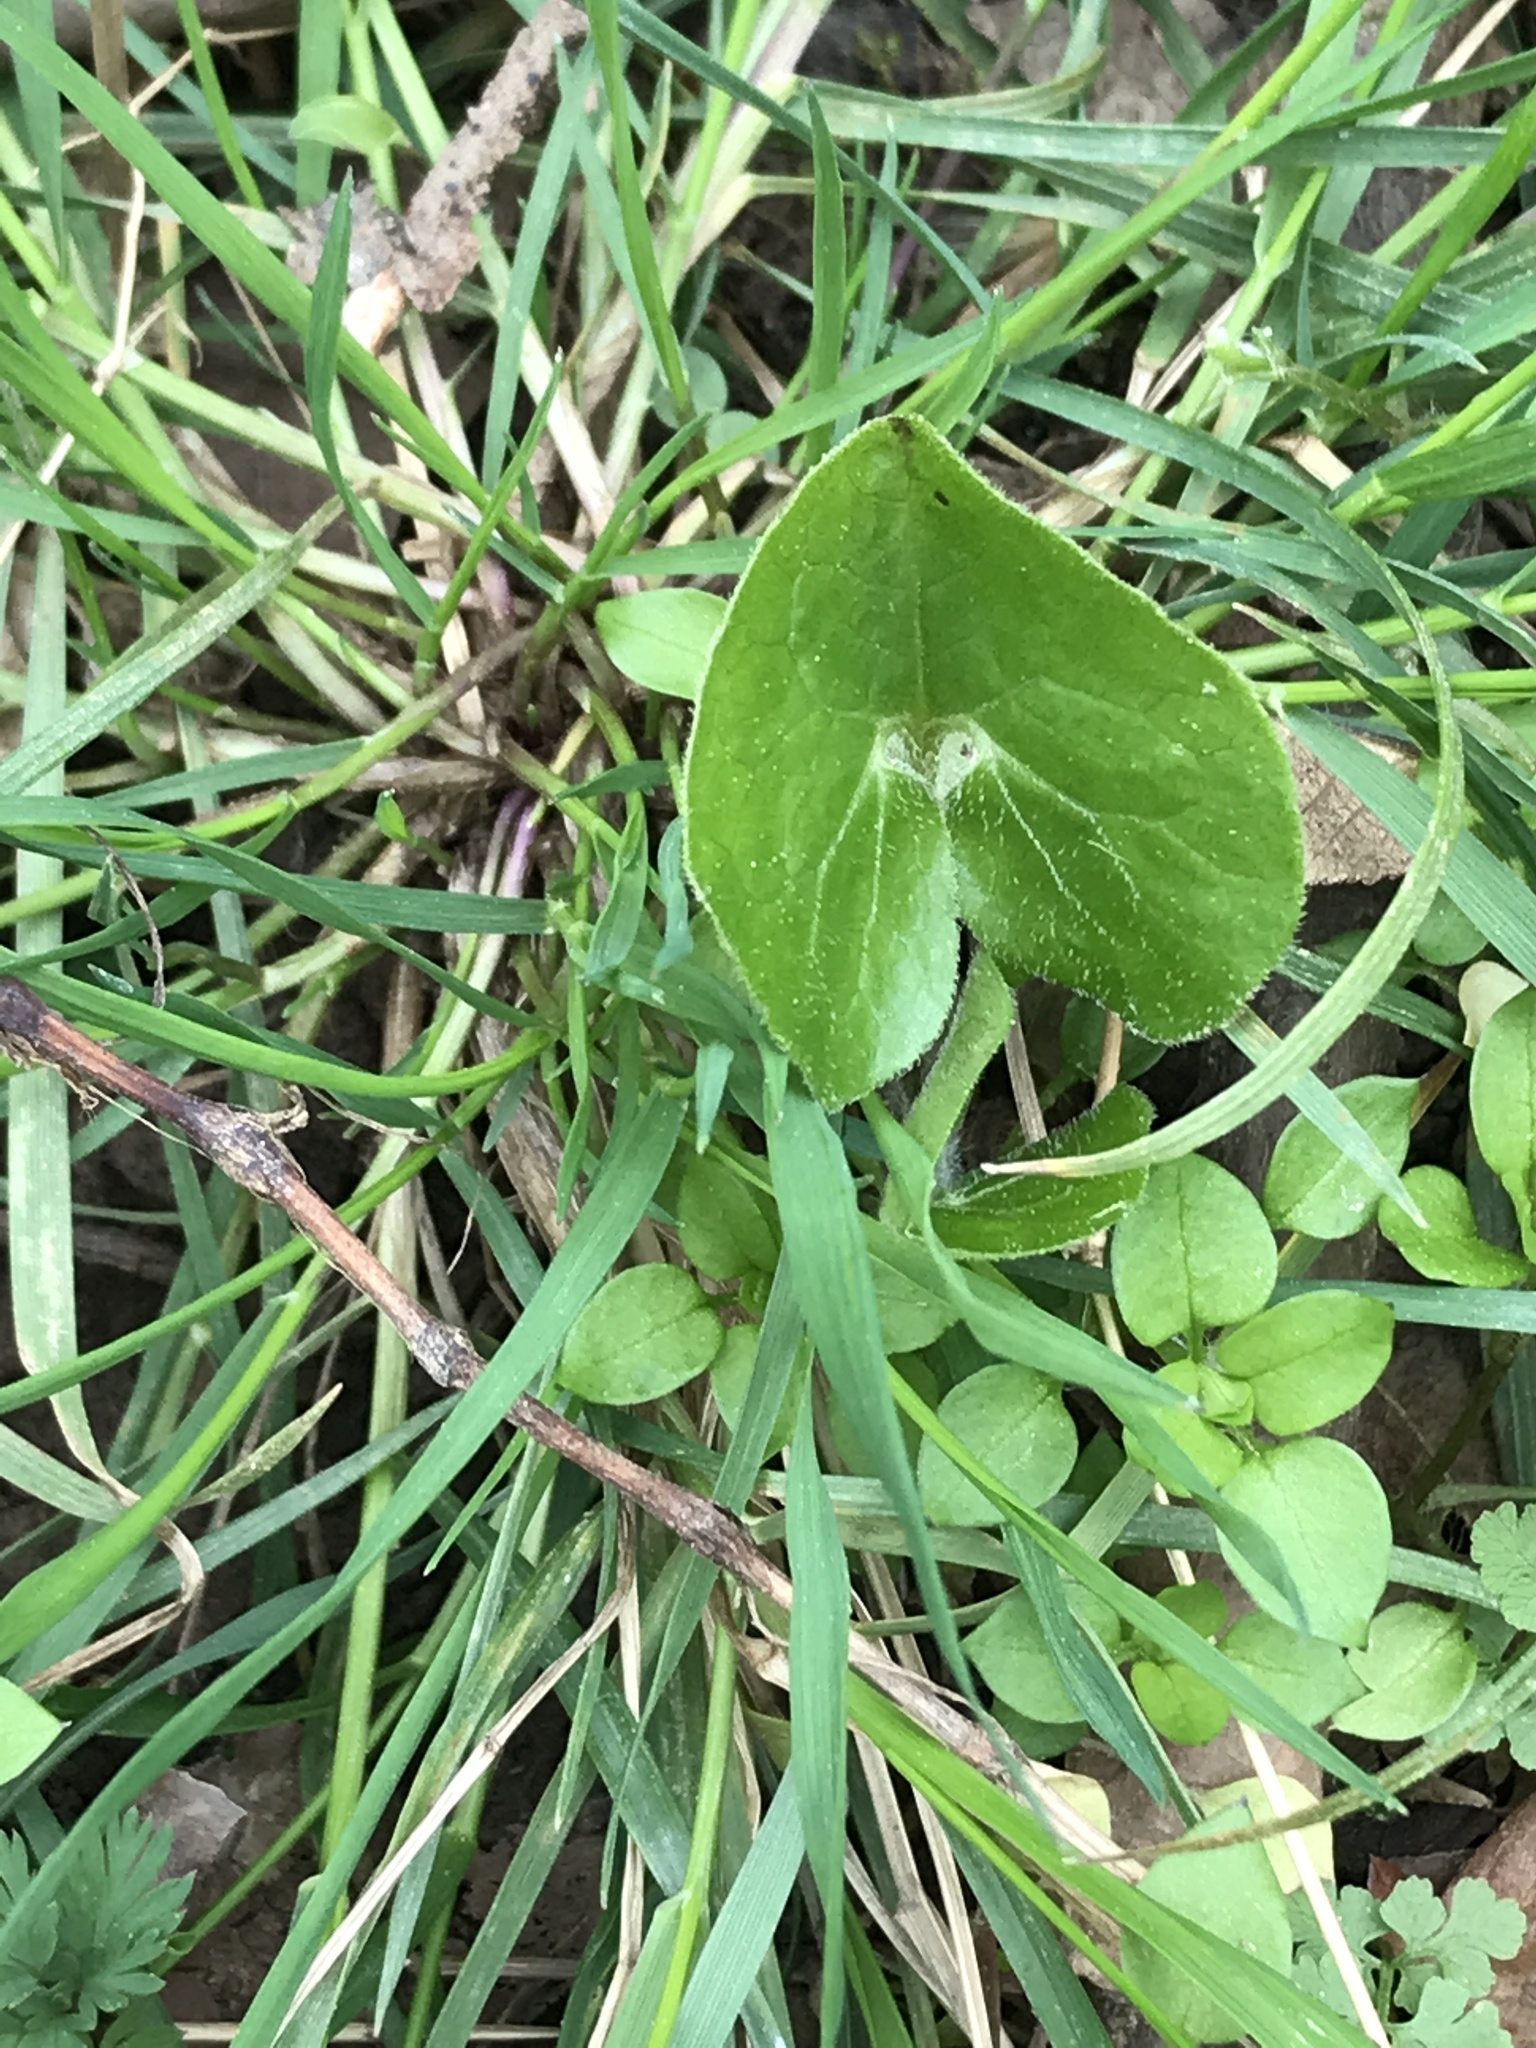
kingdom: Plantae
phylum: Tracheophyta
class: Magnoliopsida
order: Piperales
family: Aristolochiaceae
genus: Asarum
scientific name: Asarum canadense
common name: Wild ginger
